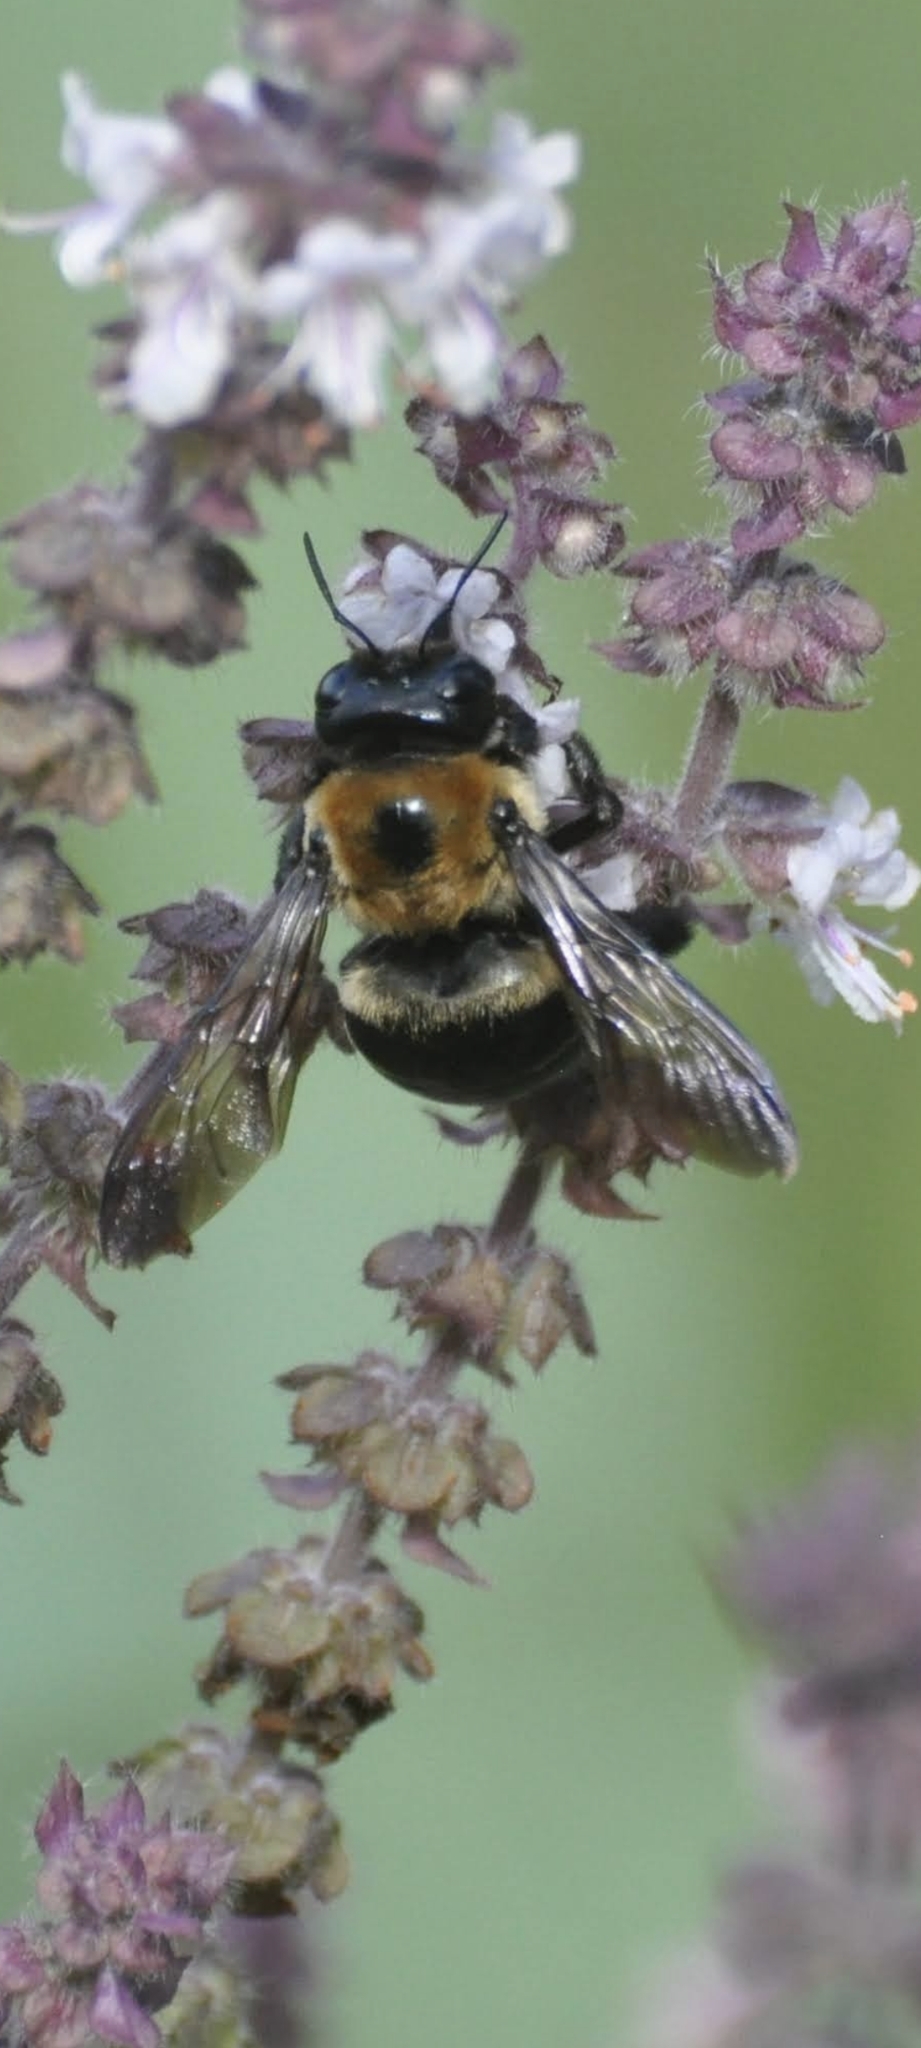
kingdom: Animalia
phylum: Arthropoda
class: Insecta
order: Hymenoptera
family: Apidae
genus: Xylocopa
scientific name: Xylocopa virginica
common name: Carpenter bee
